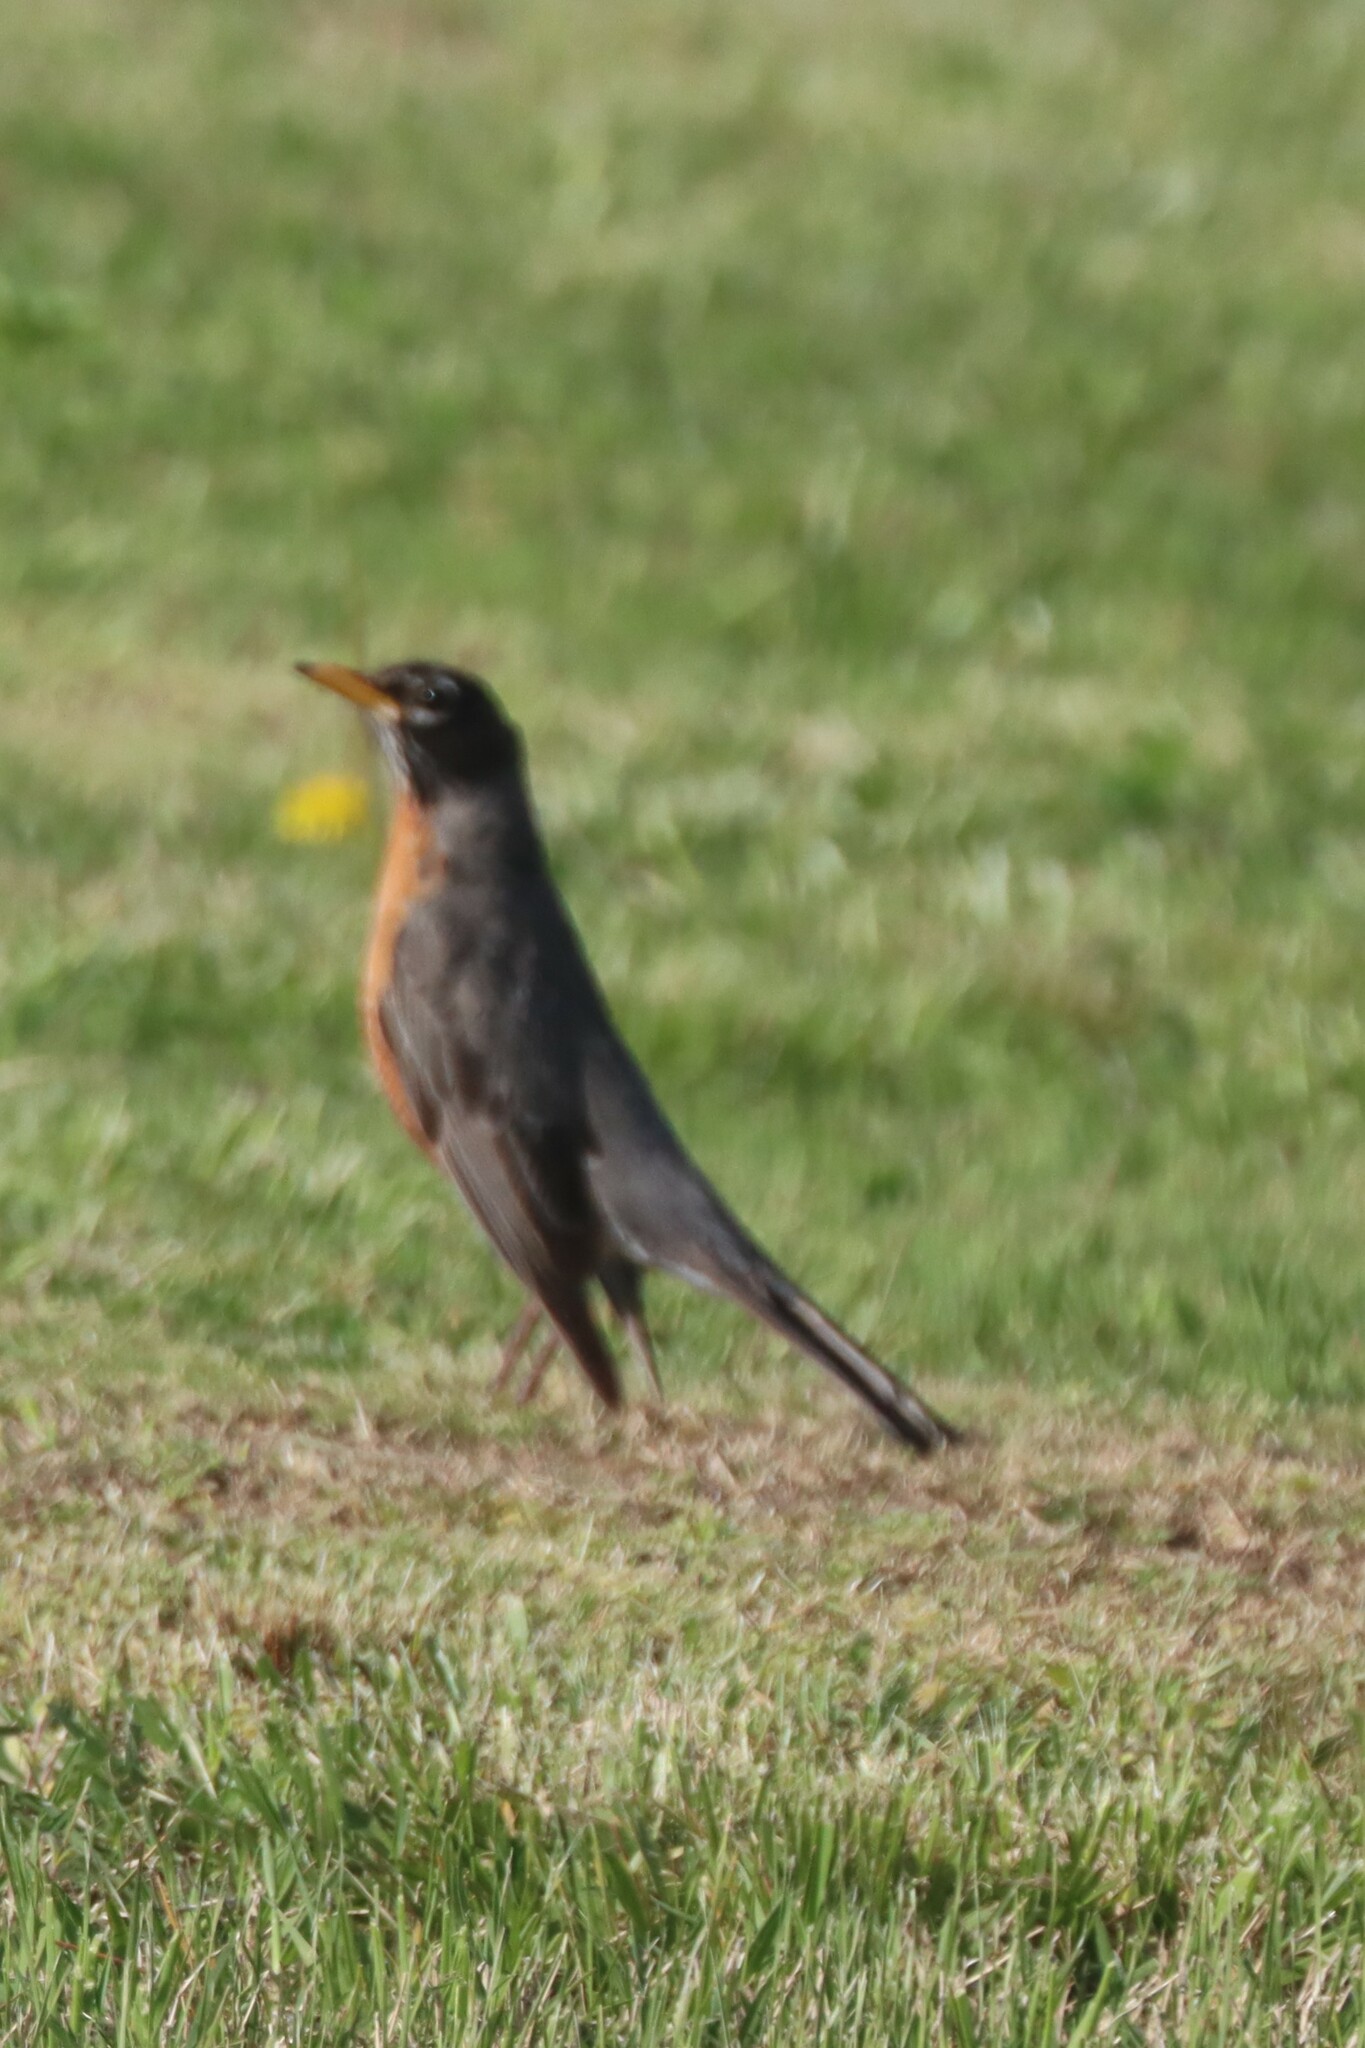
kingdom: Animalia
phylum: Chordata
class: Aves
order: Passeriformes
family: Turdidae
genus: Turdus
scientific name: Turdus migratorius
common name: American robin
